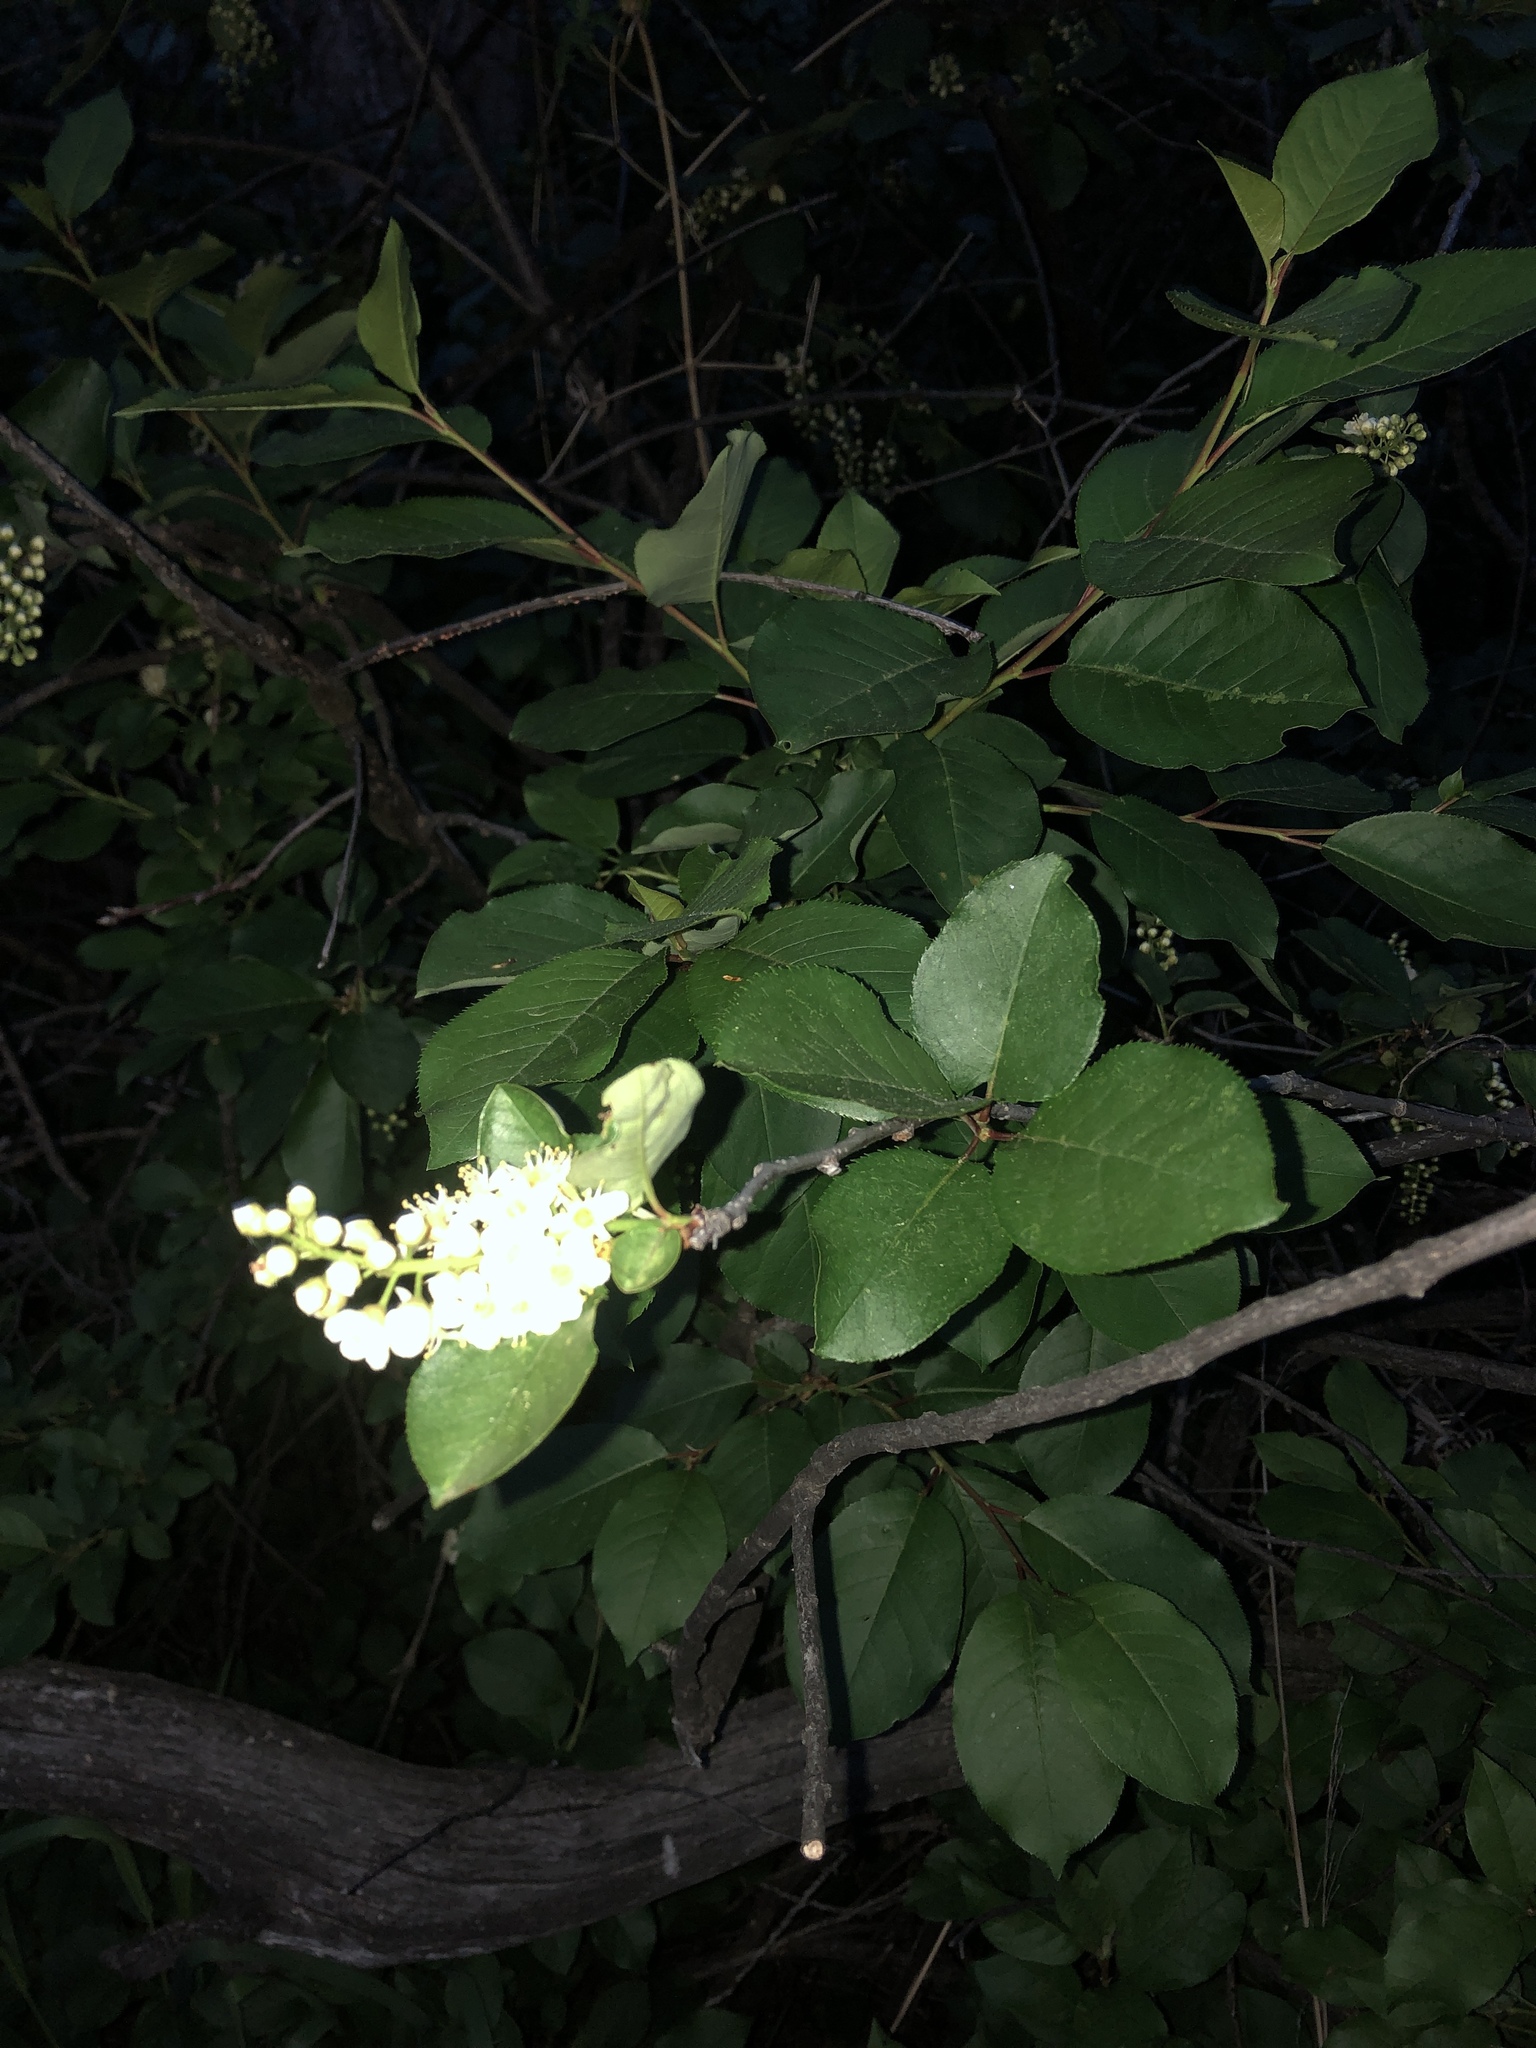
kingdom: Plantae
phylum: Tracheophyta
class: Magnoliopsida
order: Rosales
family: Rosaceae
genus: Prunus
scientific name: Prunus virginiana
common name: Chokecherry
